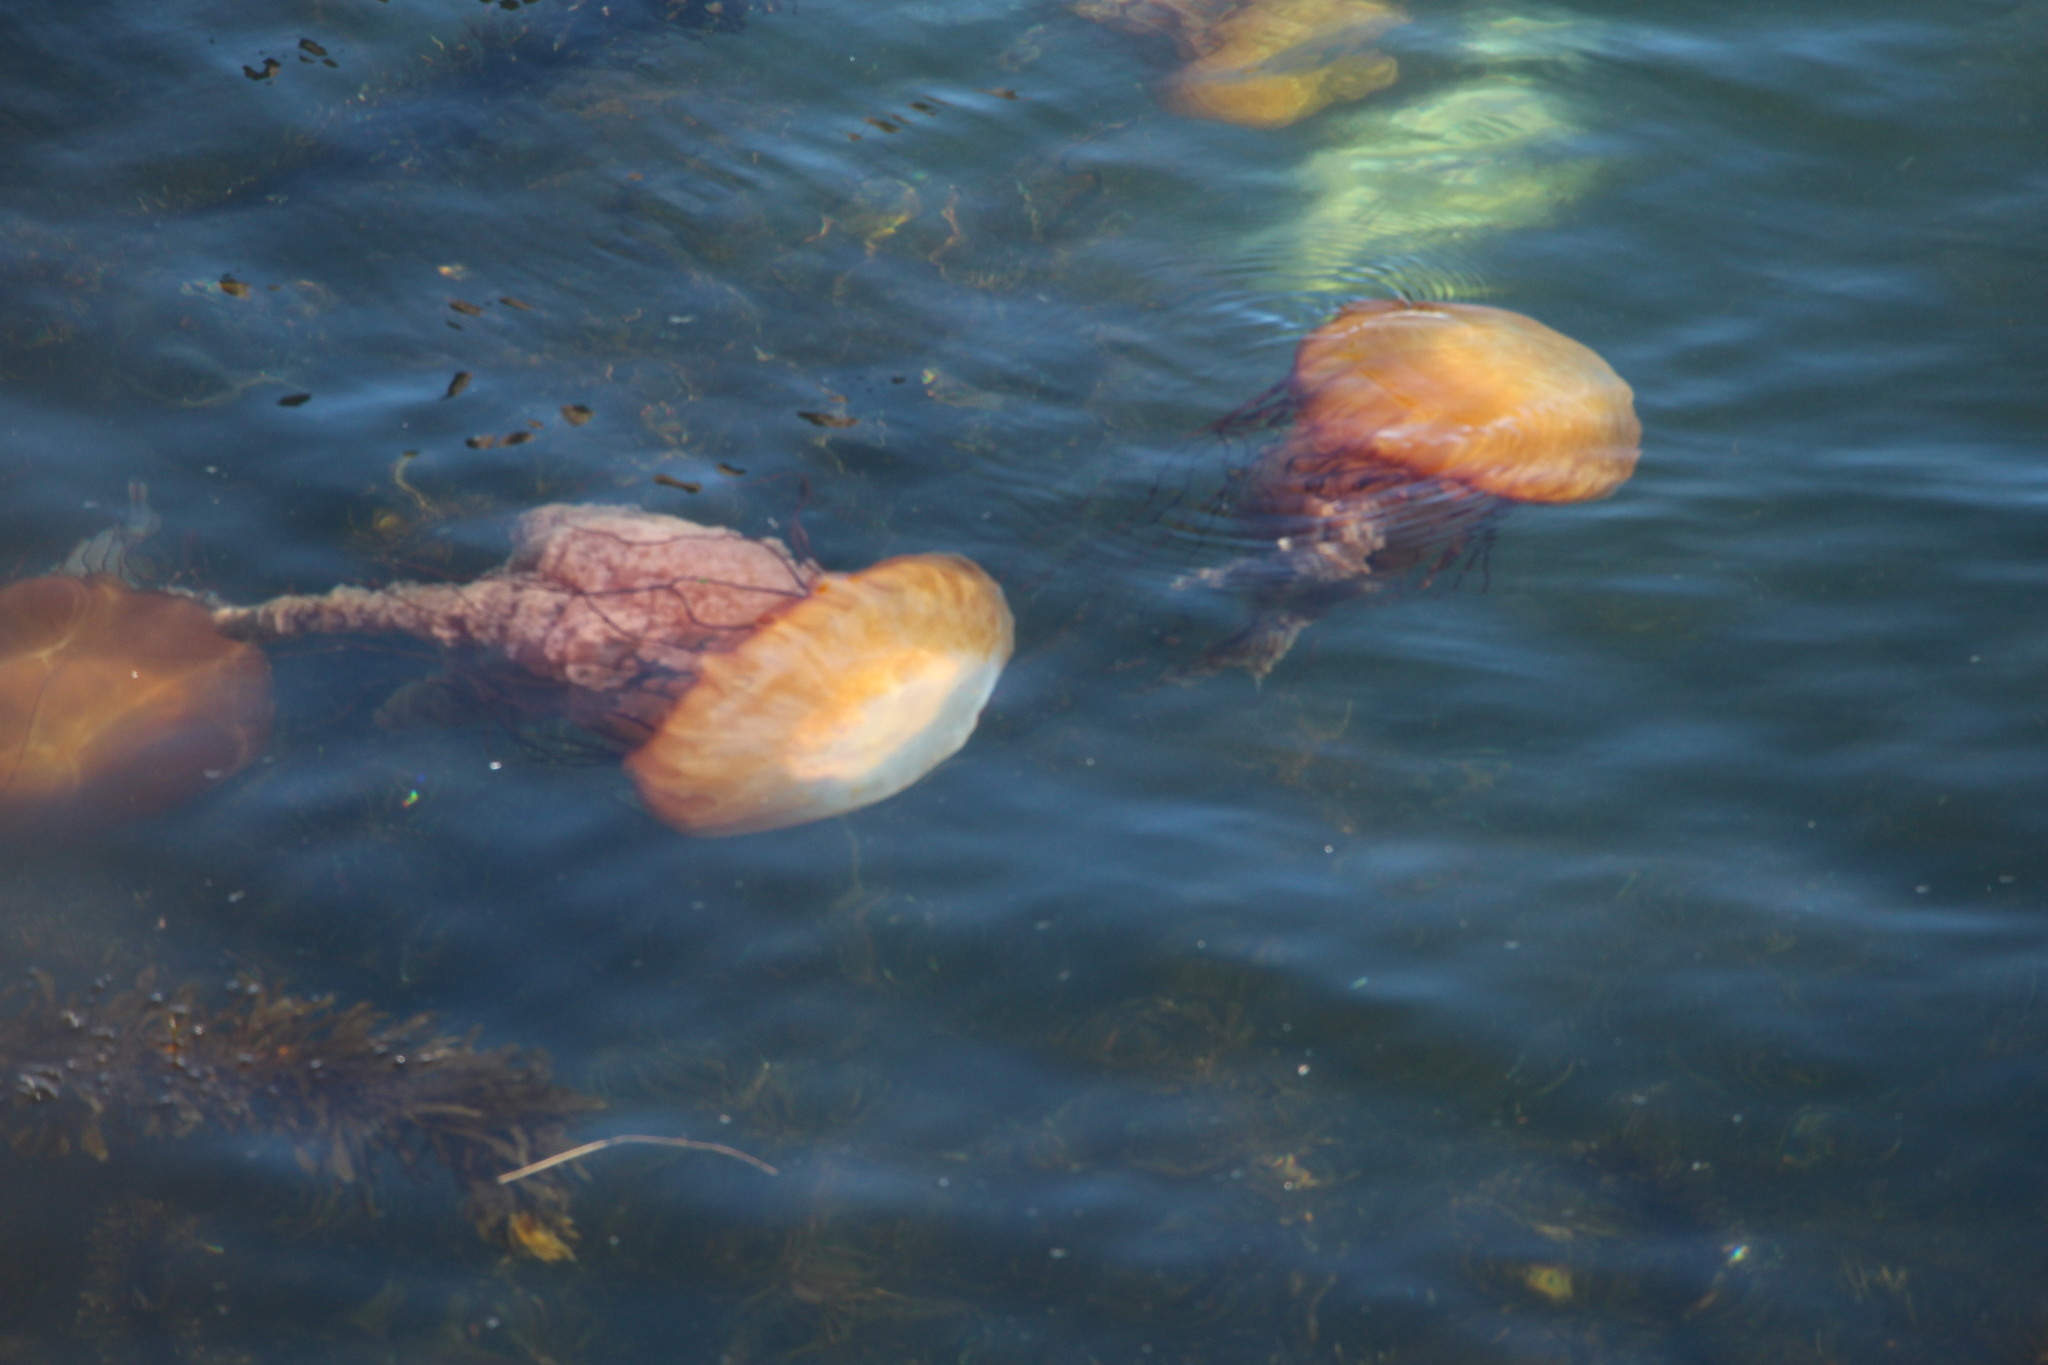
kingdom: Animalia
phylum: Cnidaria
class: Scyphozoa
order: Semaeostomeae
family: Pelagiidae
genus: Chrysaora
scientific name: Chrysaora fuscescens
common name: Sea nettle
